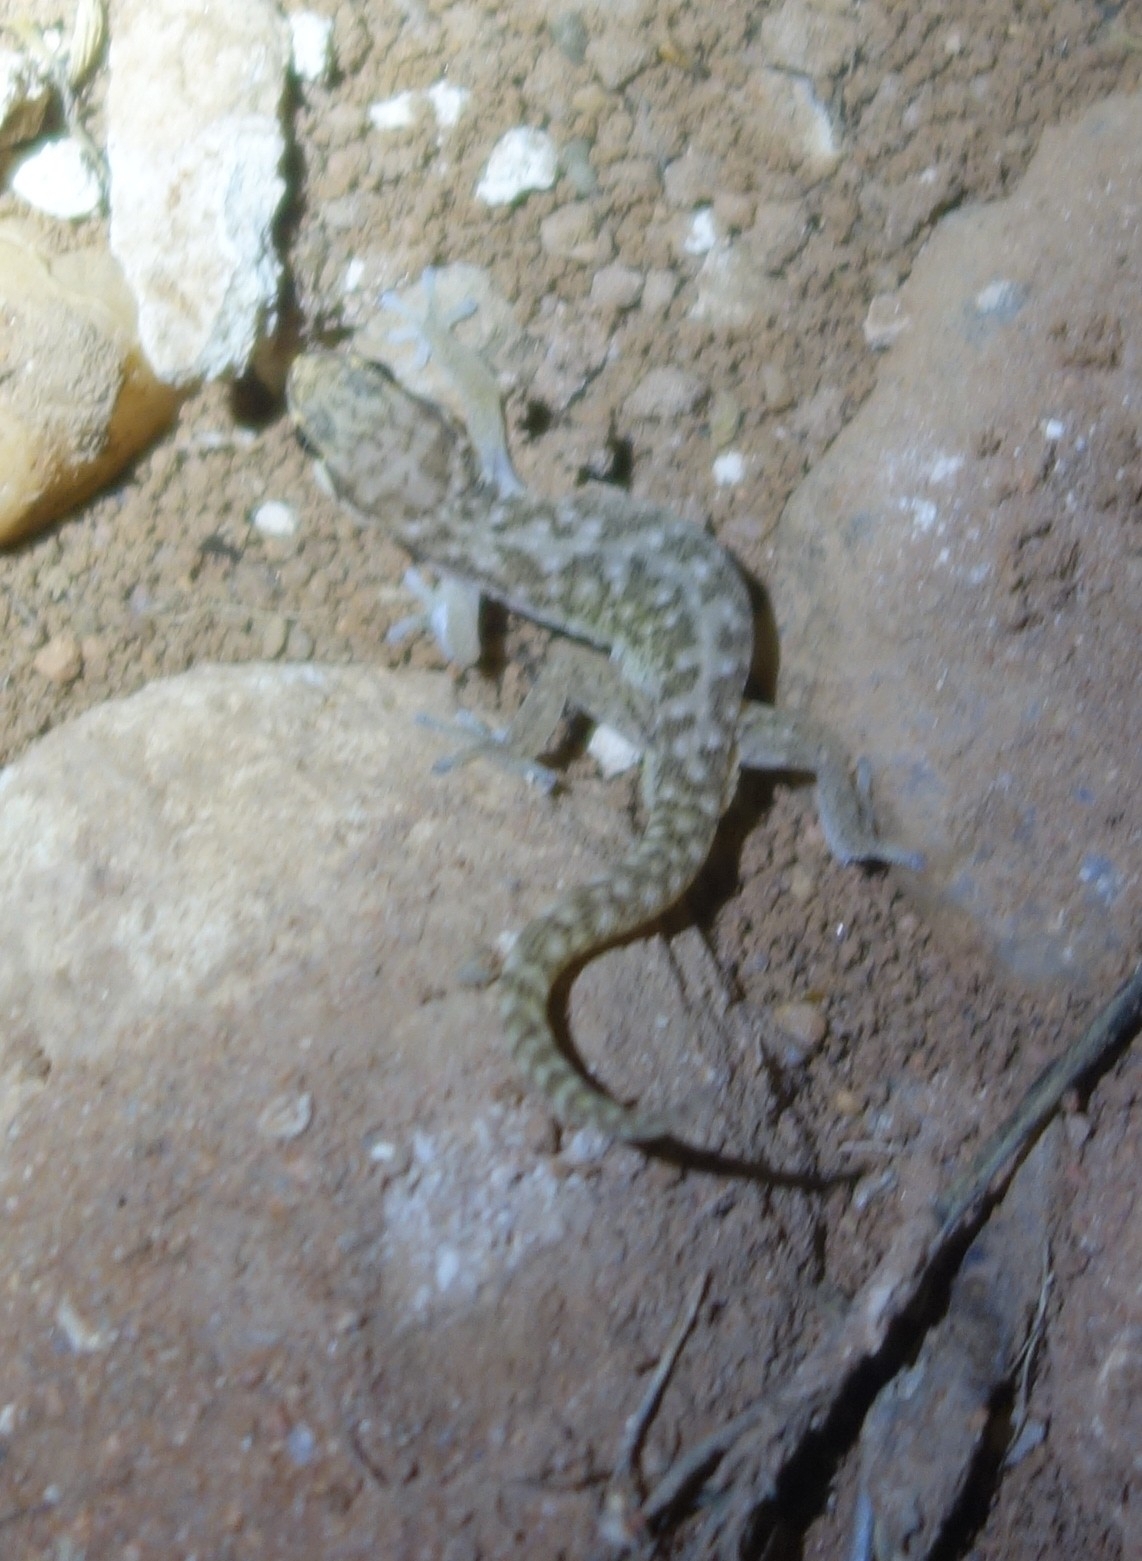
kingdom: Animalia
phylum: Chordata
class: Squamata
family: Gekkonidae
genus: Pachydactylus
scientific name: Pachydactylus punctatus
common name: Pointed thick-toed gecko
